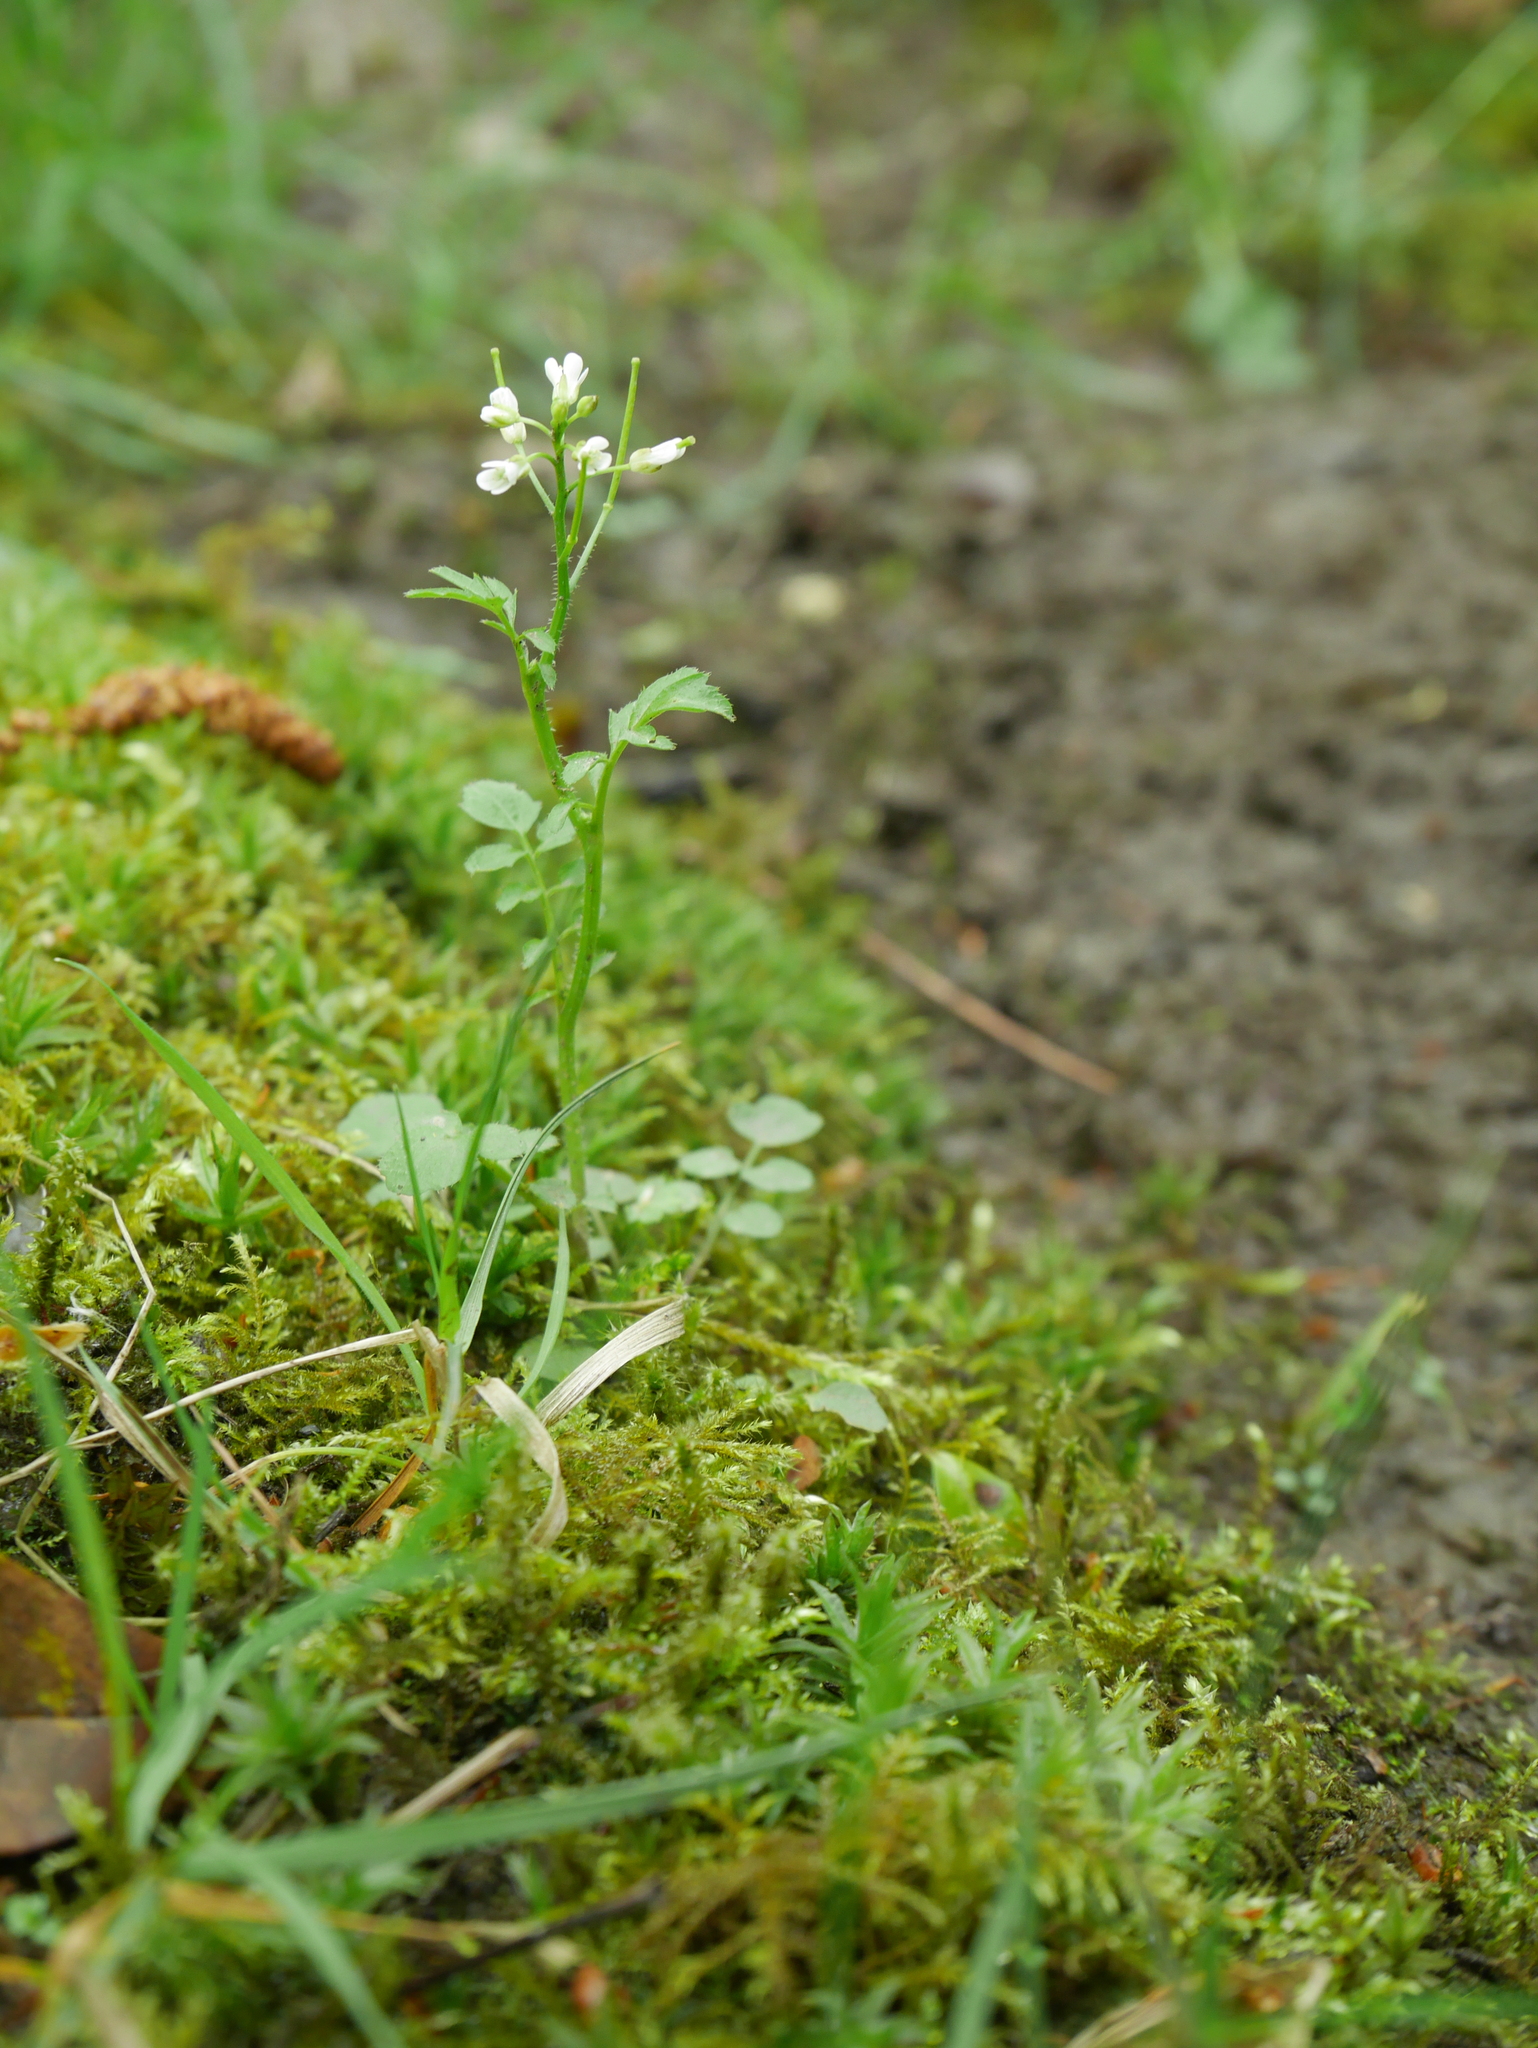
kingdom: Plantae
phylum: Tracheophyta
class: Magnoliopsida
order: Brassicales
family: Brassicaceae
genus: Cardamine
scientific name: Cardamine flexuosa
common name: Woodland bittercress
